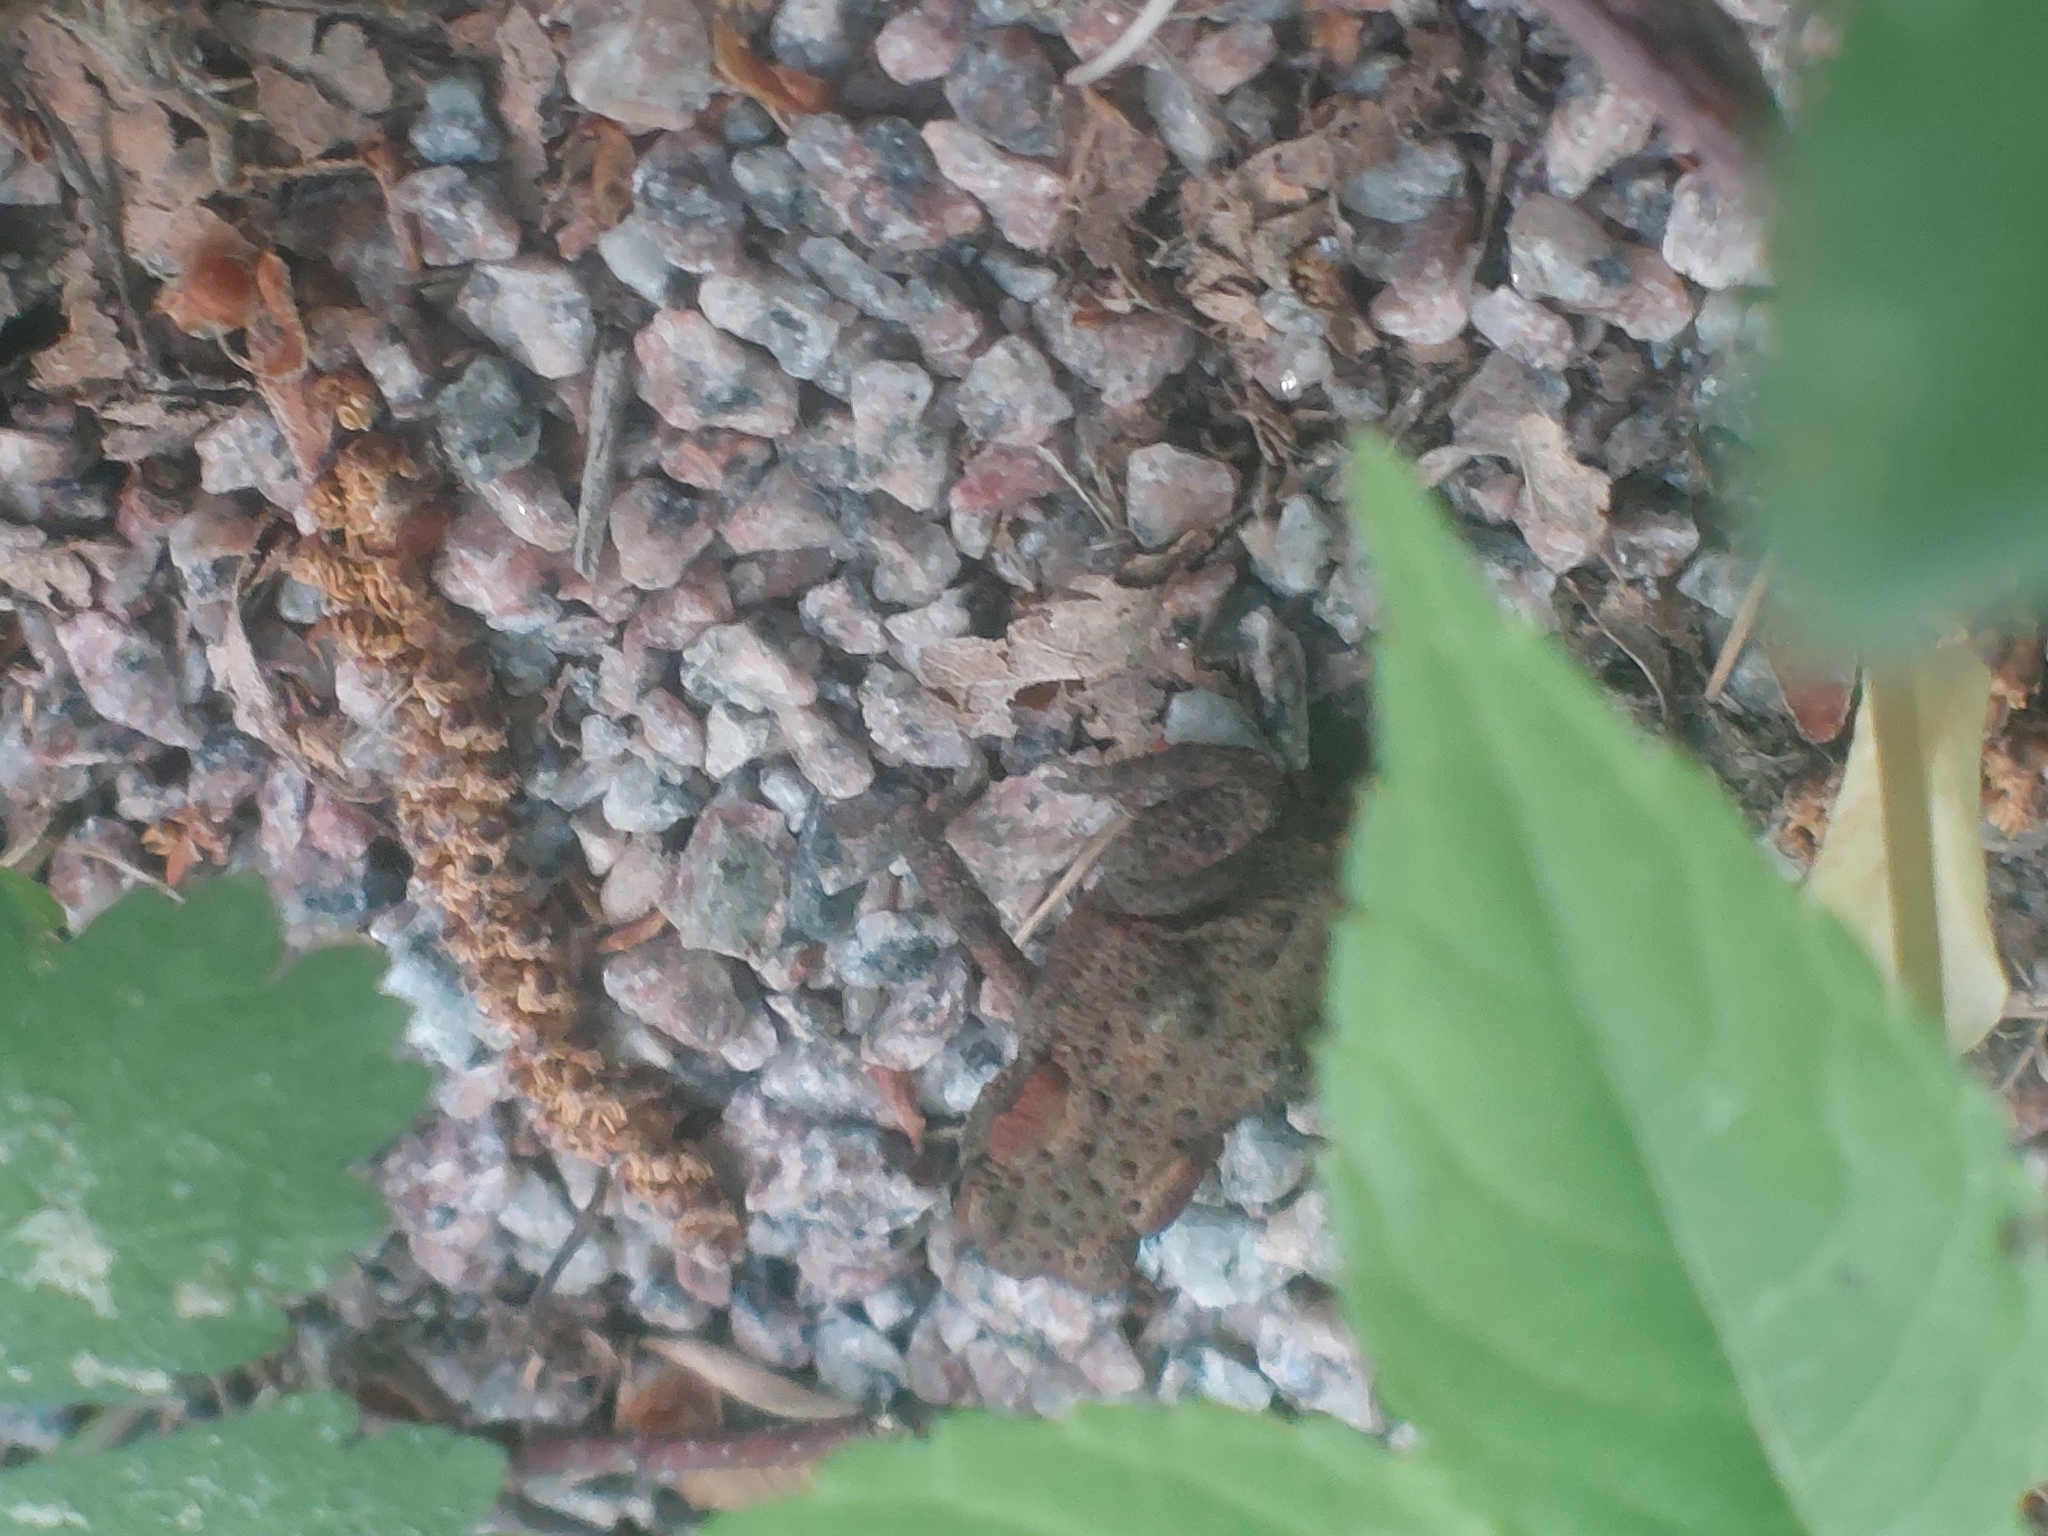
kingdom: Animalia
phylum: Chordata
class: Amphibia
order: Anura
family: Bufonidae
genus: Bufo
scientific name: Bufo bufo
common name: Common toad
